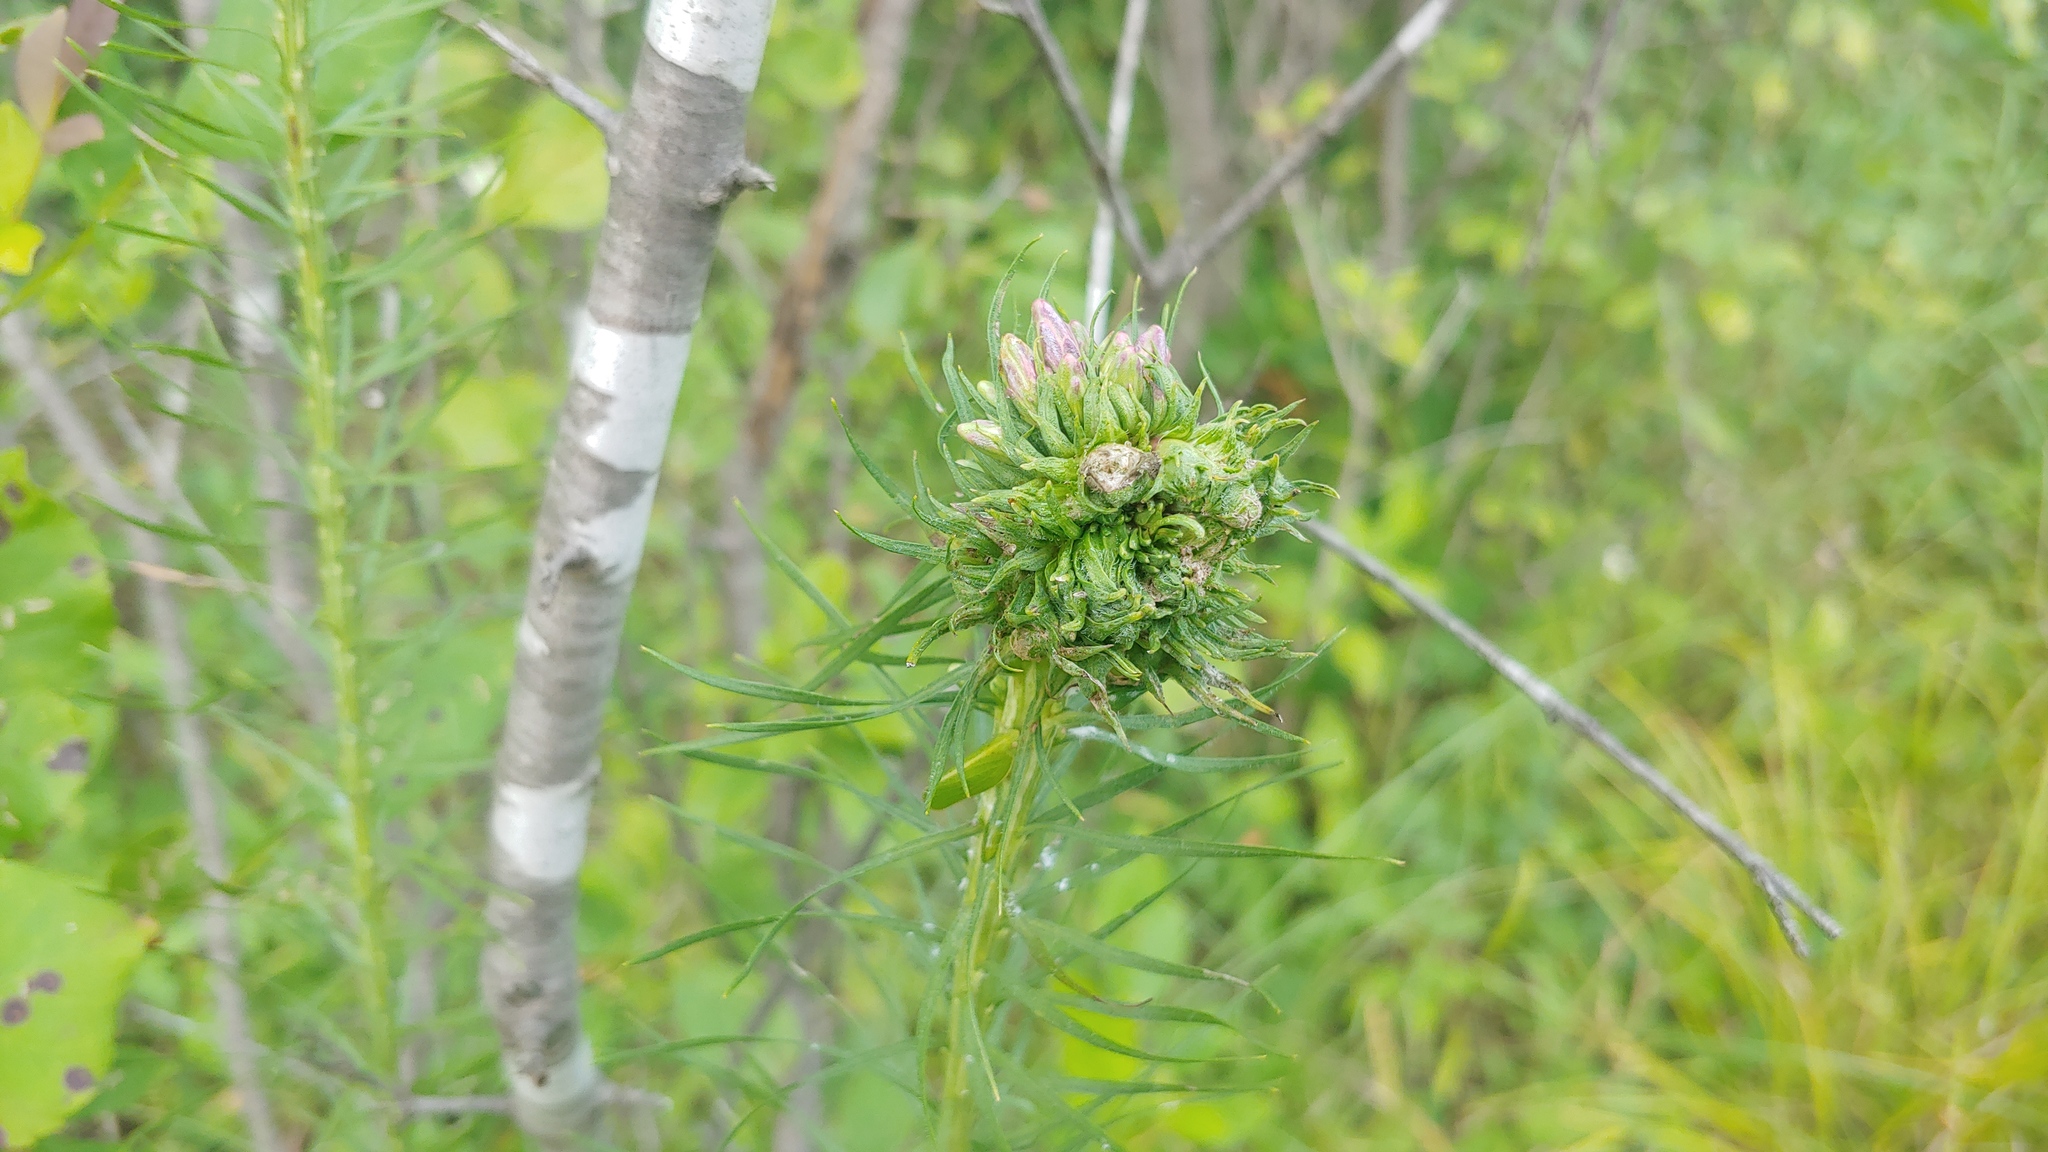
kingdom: Animalia
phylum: Arthropoda
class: Insecta
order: Diptera
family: Cecidomyiidae
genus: Asphondylia
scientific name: Asphondylia lacinariae
